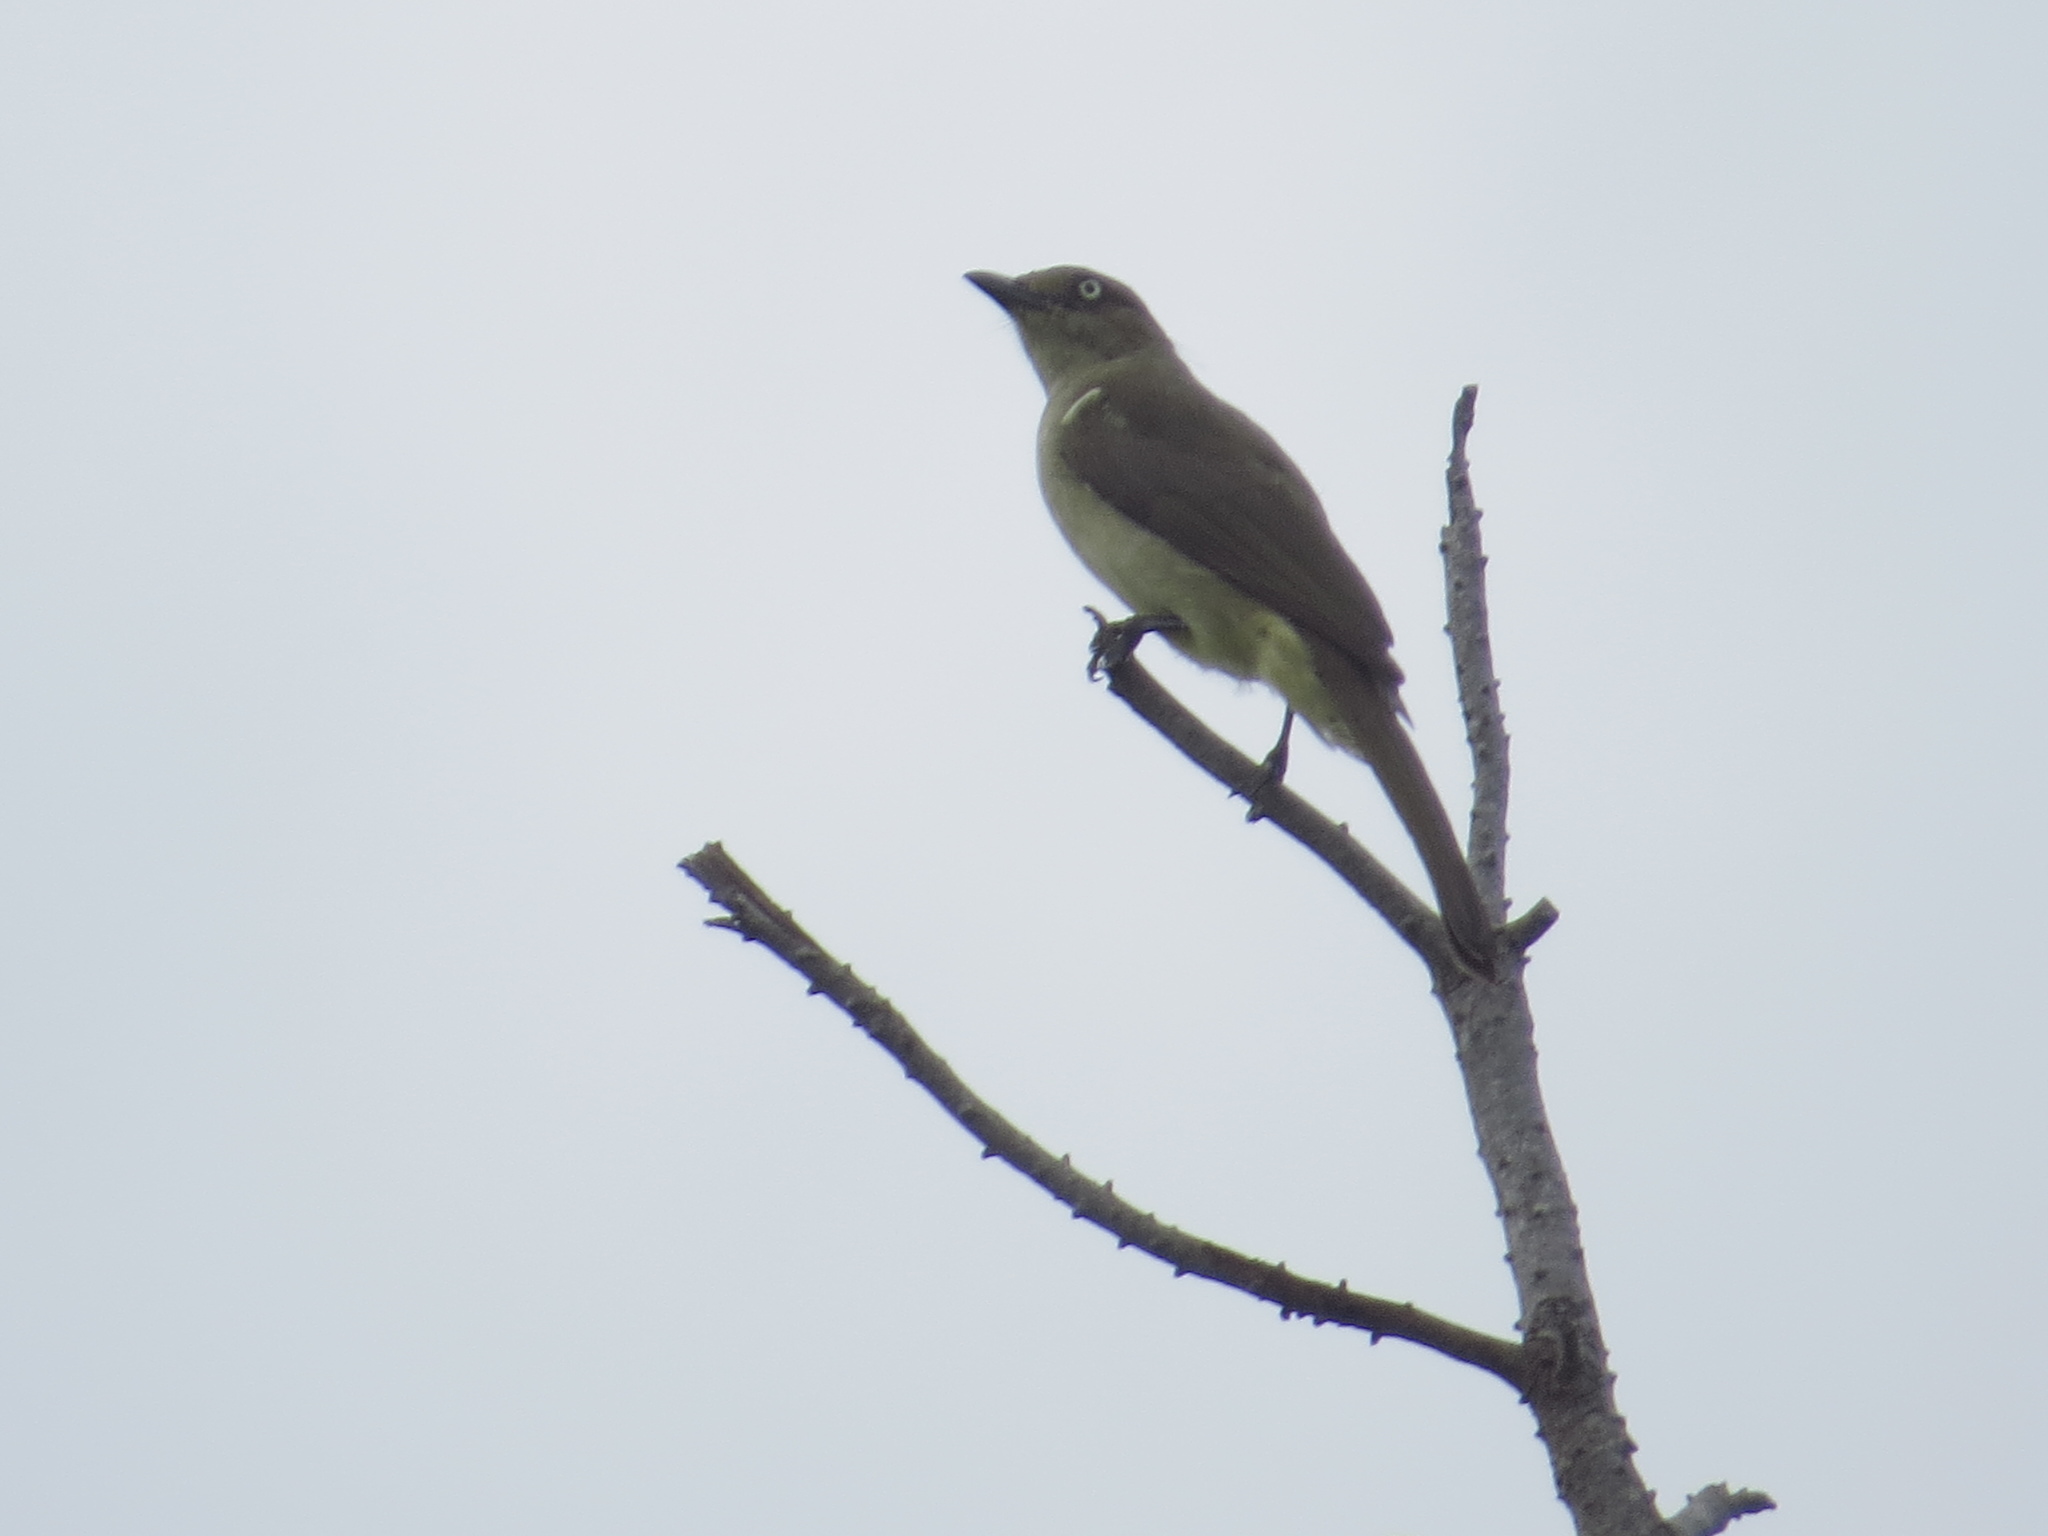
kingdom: Animalia
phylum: Chordata
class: Aves
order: Passeriformes
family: Pycnonotidae
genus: Andropadus
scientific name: Andropadus importunus
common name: Sombre greenbul
